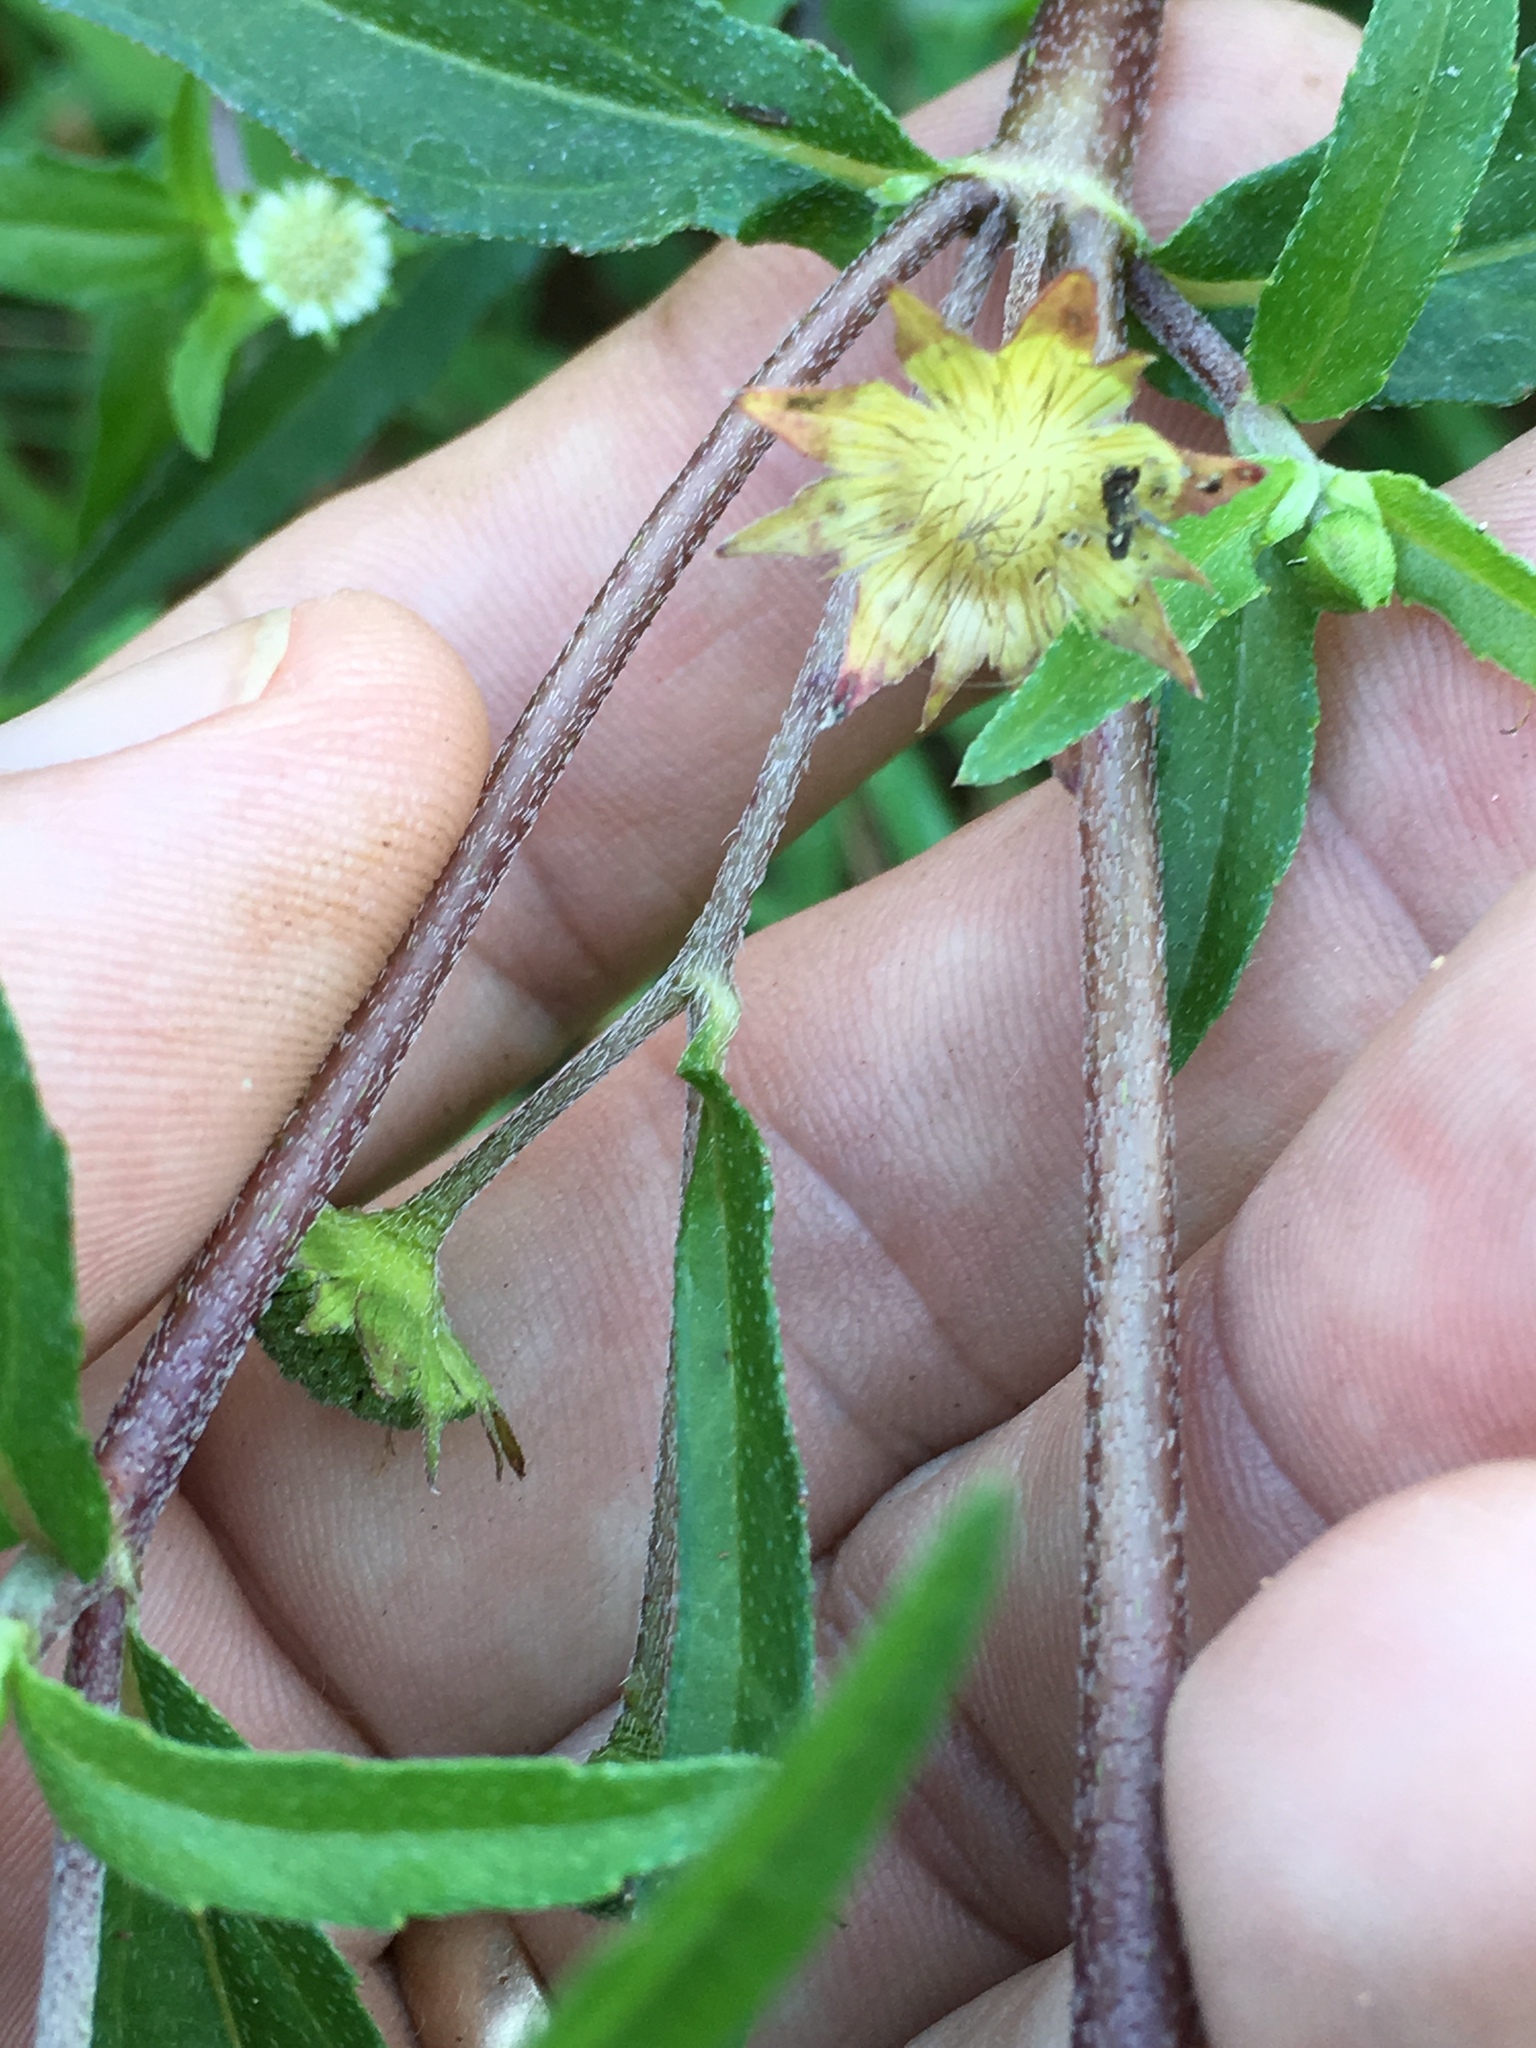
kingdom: Plantae
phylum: Tracheophyta
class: Magnoliopsida
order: Asterales
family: Asteraceae
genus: Eclipta
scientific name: Eclipta prostrata
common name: False daisy
